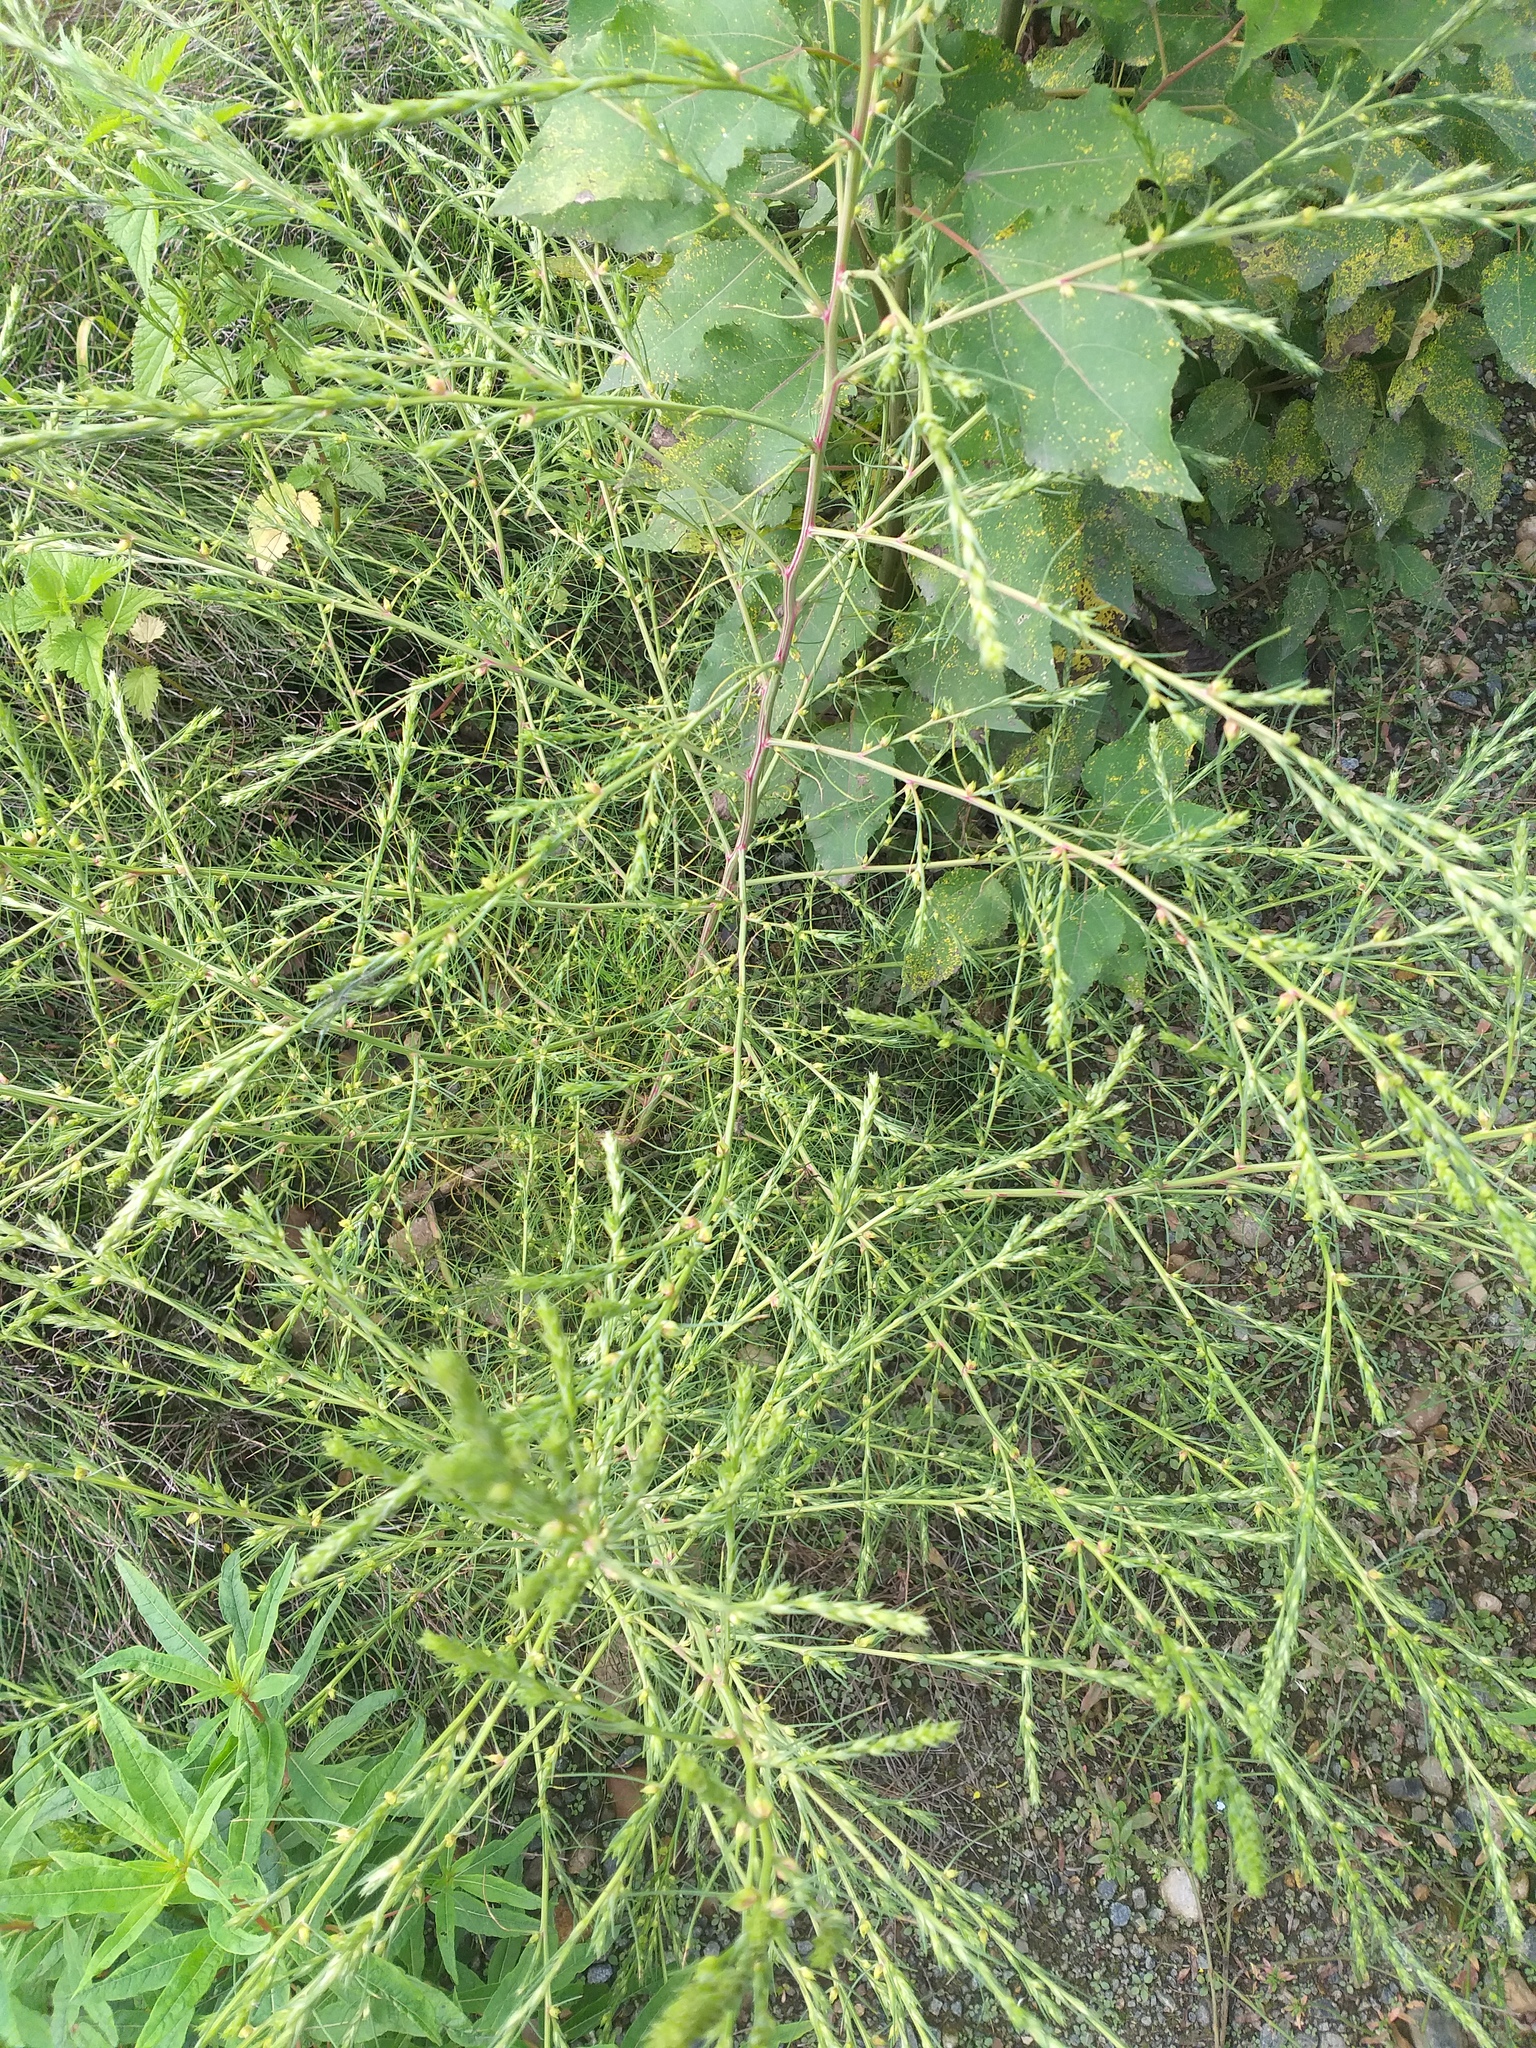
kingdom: Plantae
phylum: Tracheophyta
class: Magnoliopsida
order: Caryophyllales
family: Amaranthaceae
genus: Salsola
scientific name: Salsola collina
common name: Tumbleweed
